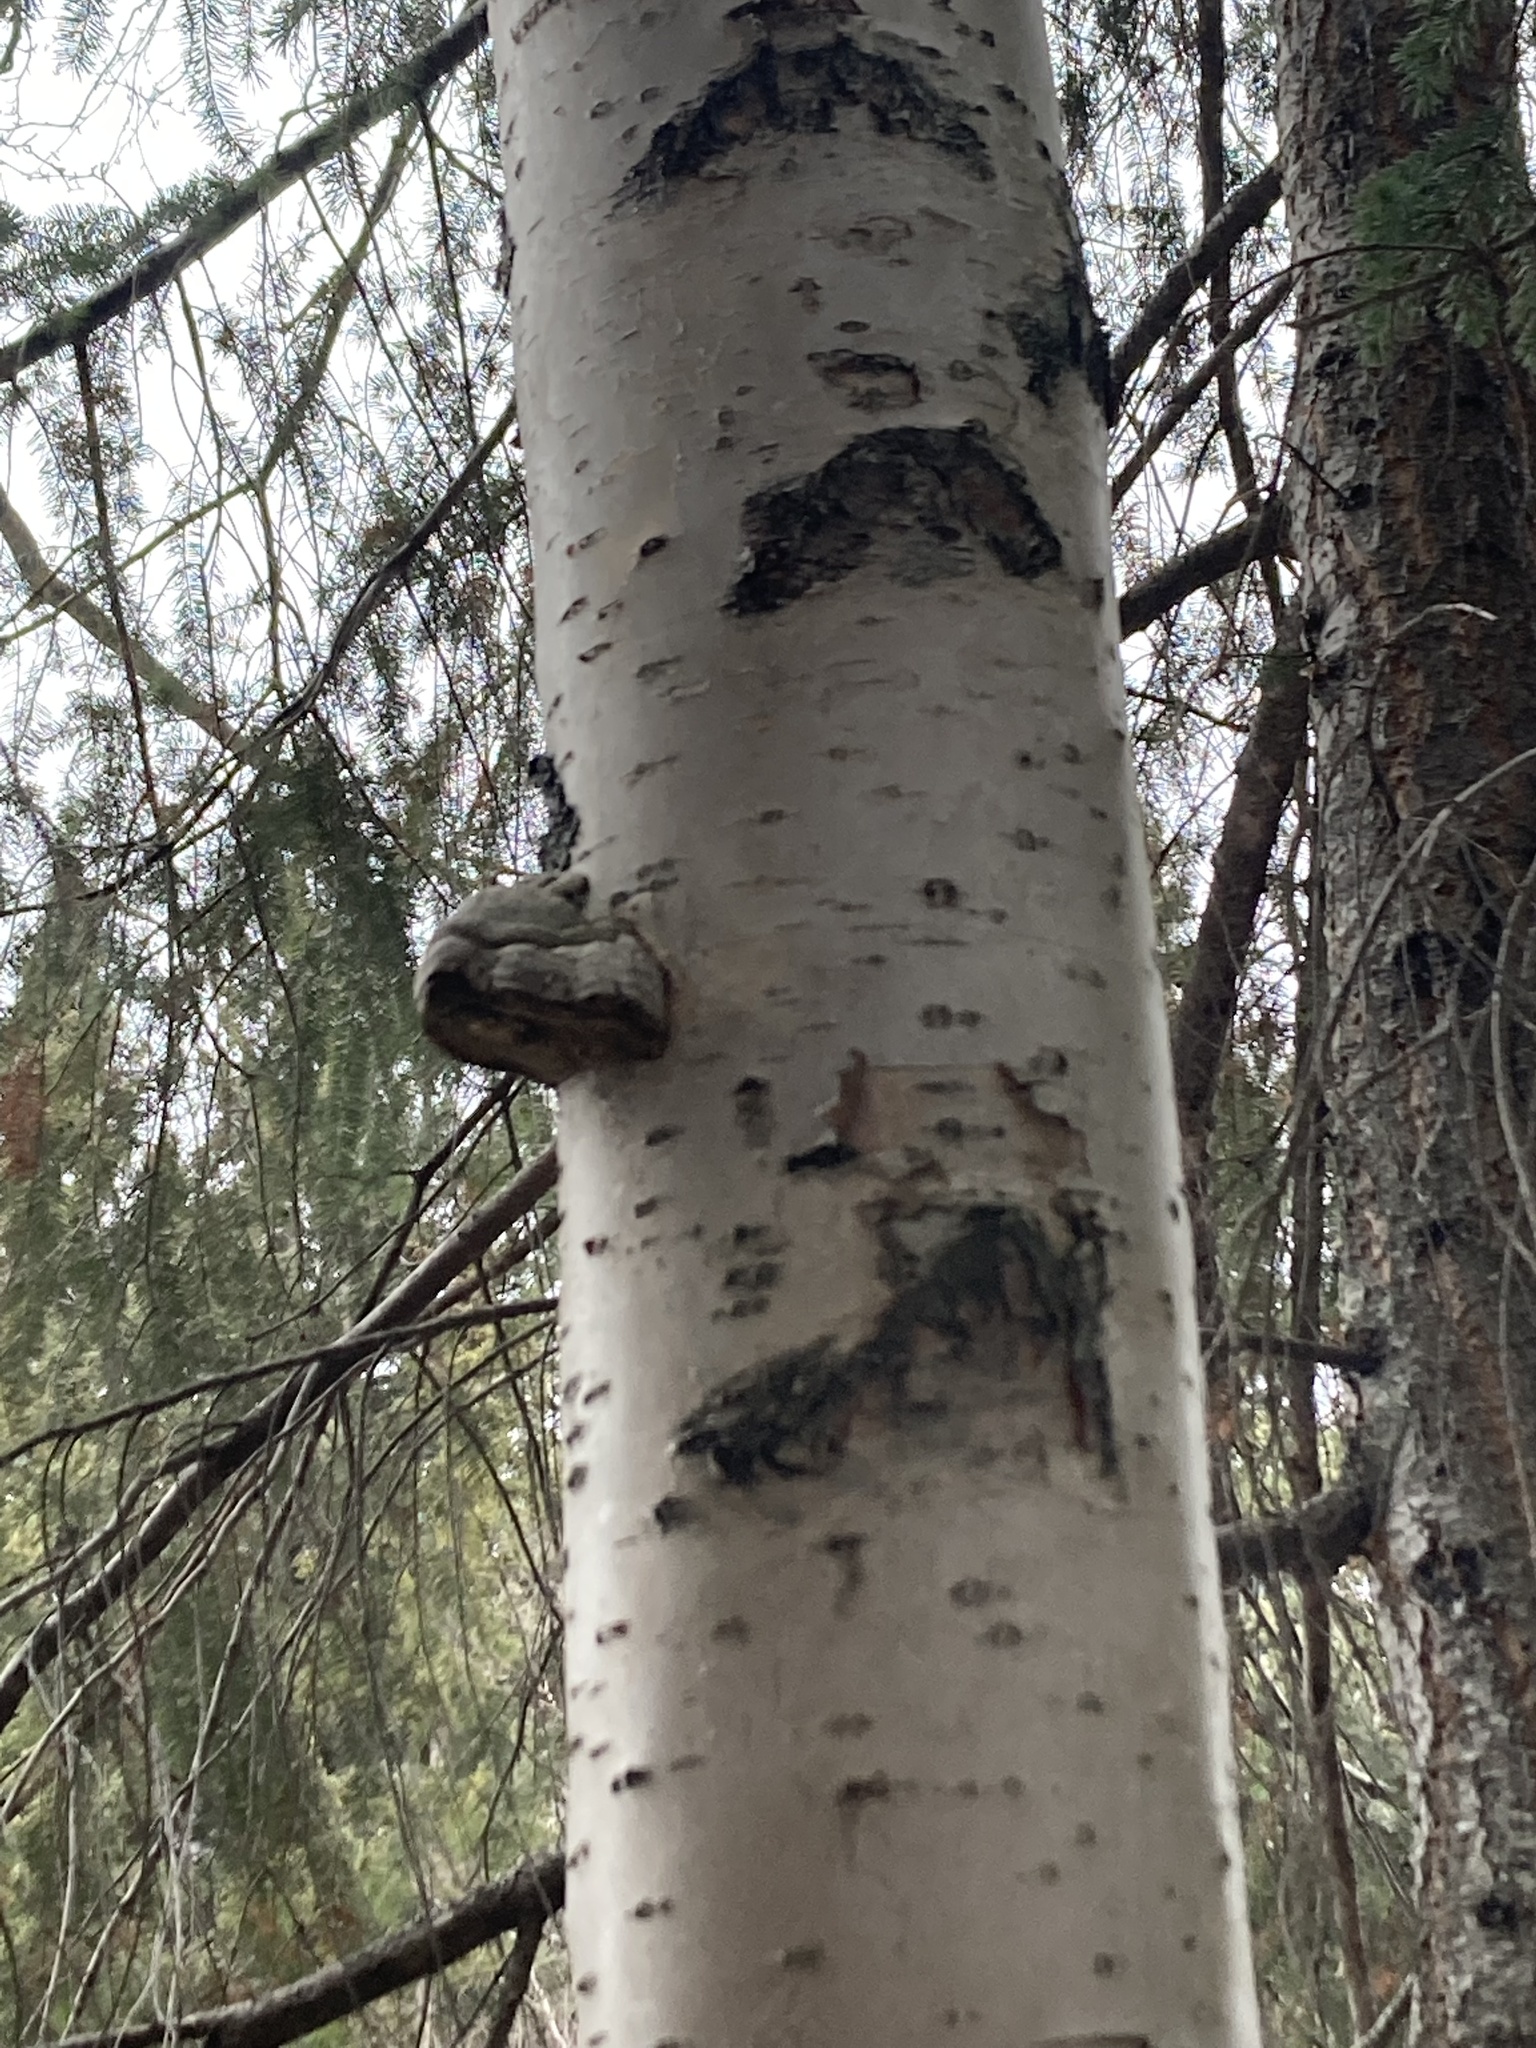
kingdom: Fungi
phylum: Basidiomycota
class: Agaricomycetes
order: Polyporales
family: Polyporaceae
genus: Fomes
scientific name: Fomes fomentarius
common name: Hoof fungus
